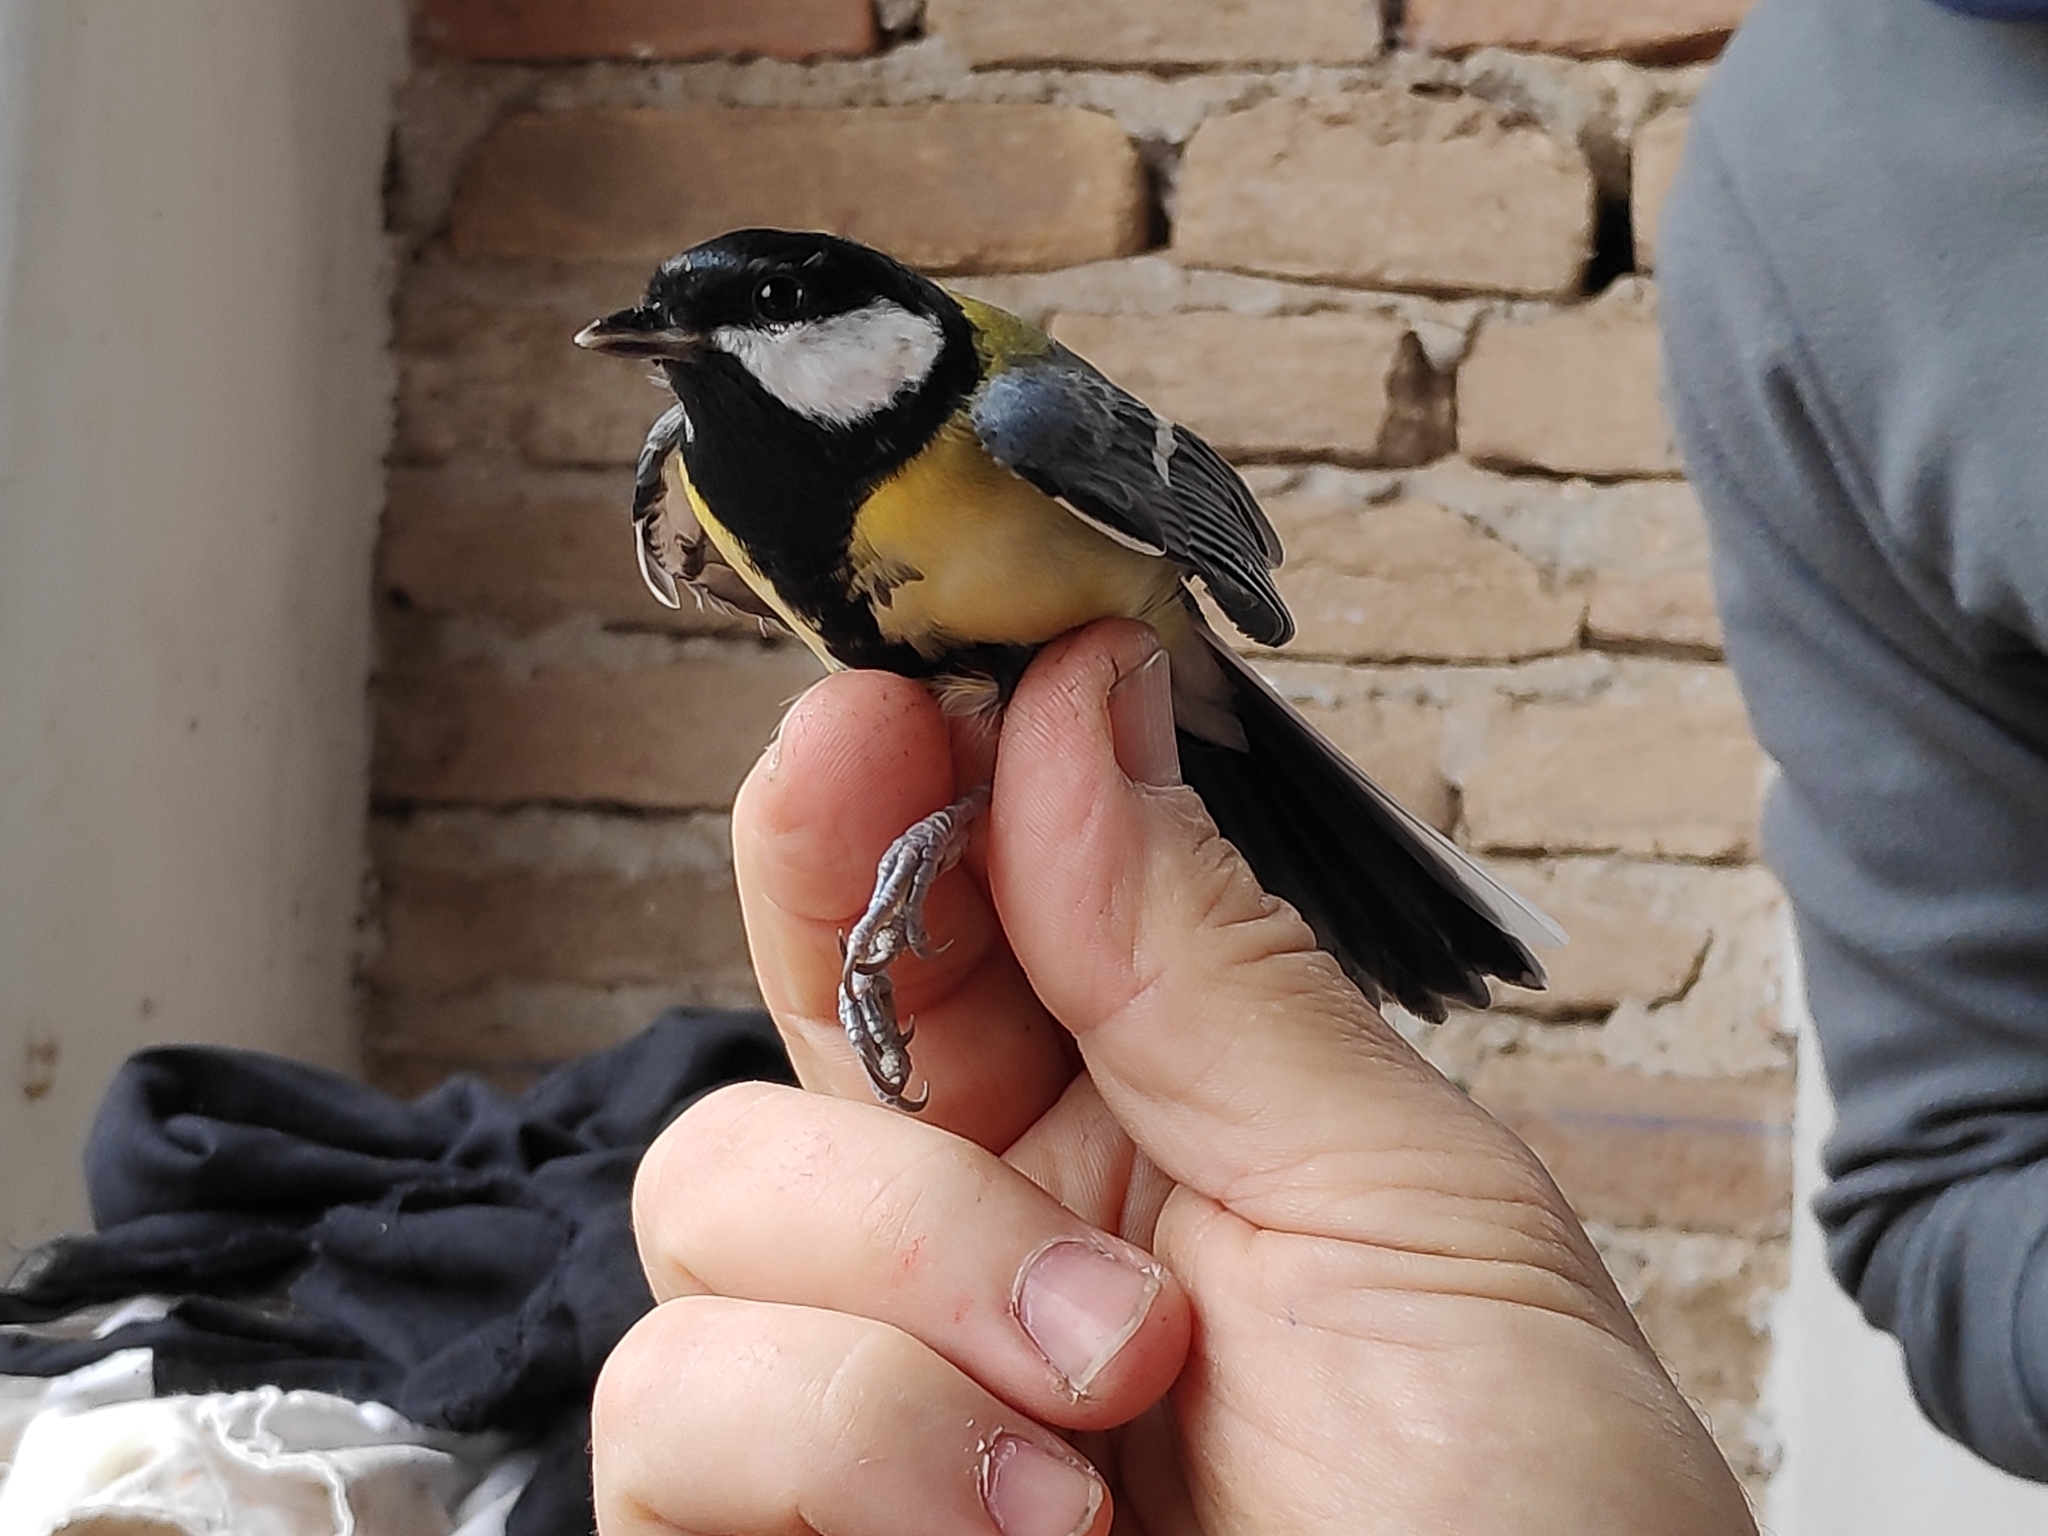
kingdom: Animalia
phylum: Chordata
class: Aves
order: Passeriformes
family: Paridae
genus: Parus
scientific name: Parus major
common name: Great tit
